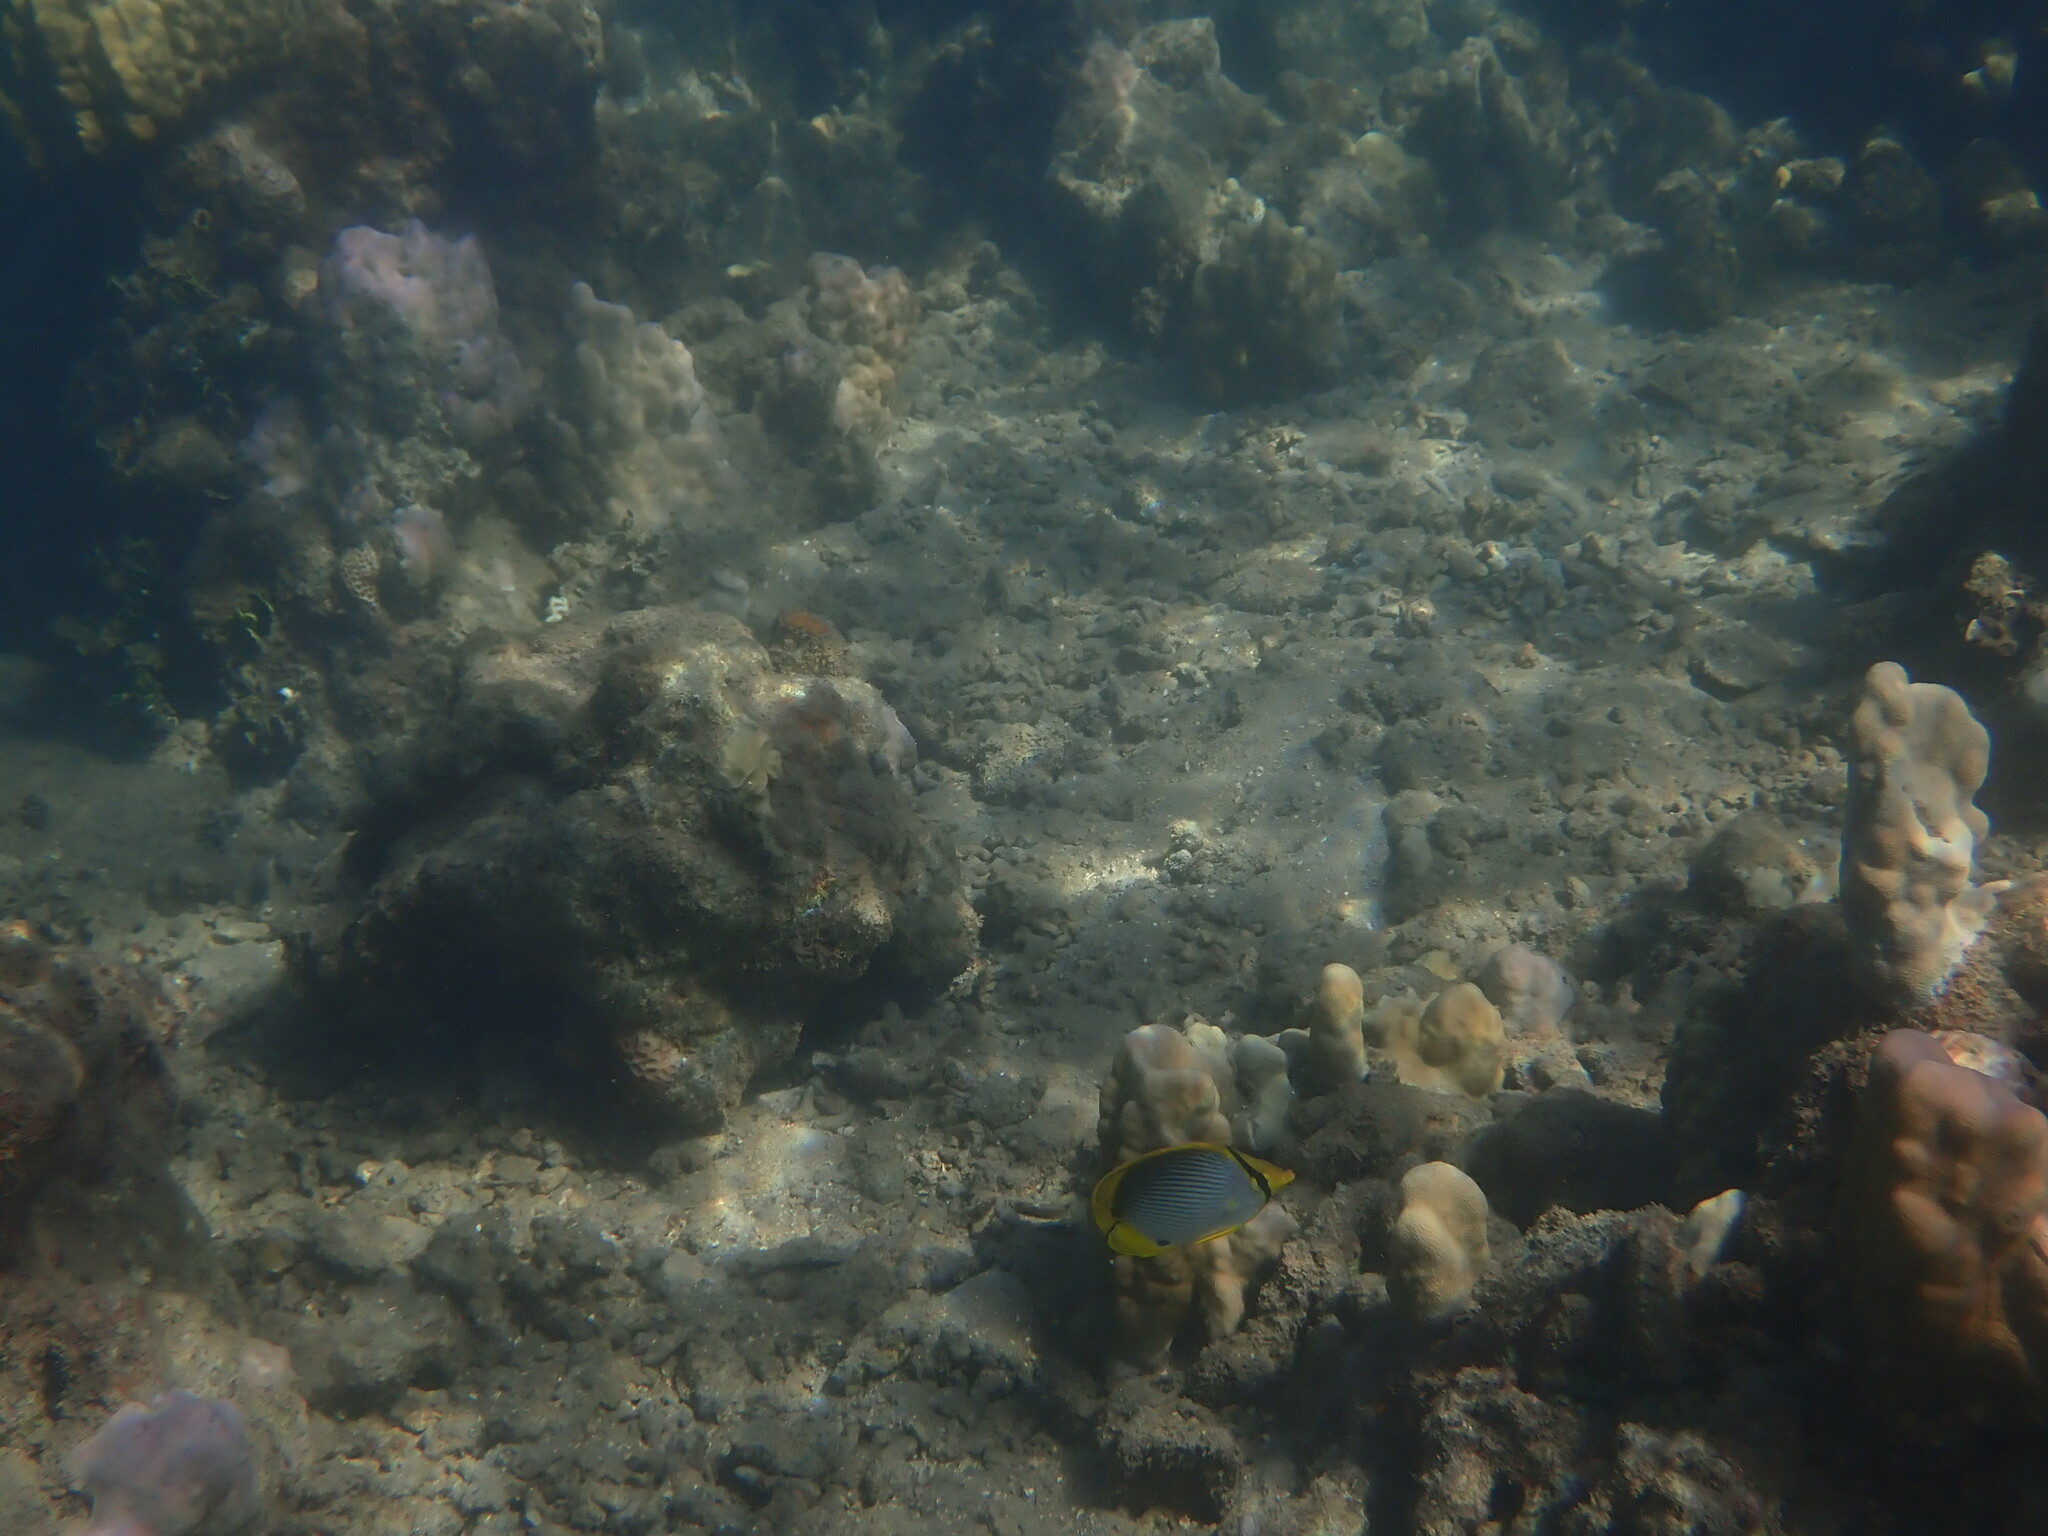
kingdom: Animalia
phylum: Chordata
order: Perciformes
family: Chaetodontidae
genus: Chaetodon
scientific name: Chaetodon melannotus
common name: Blackback butterflyfish
